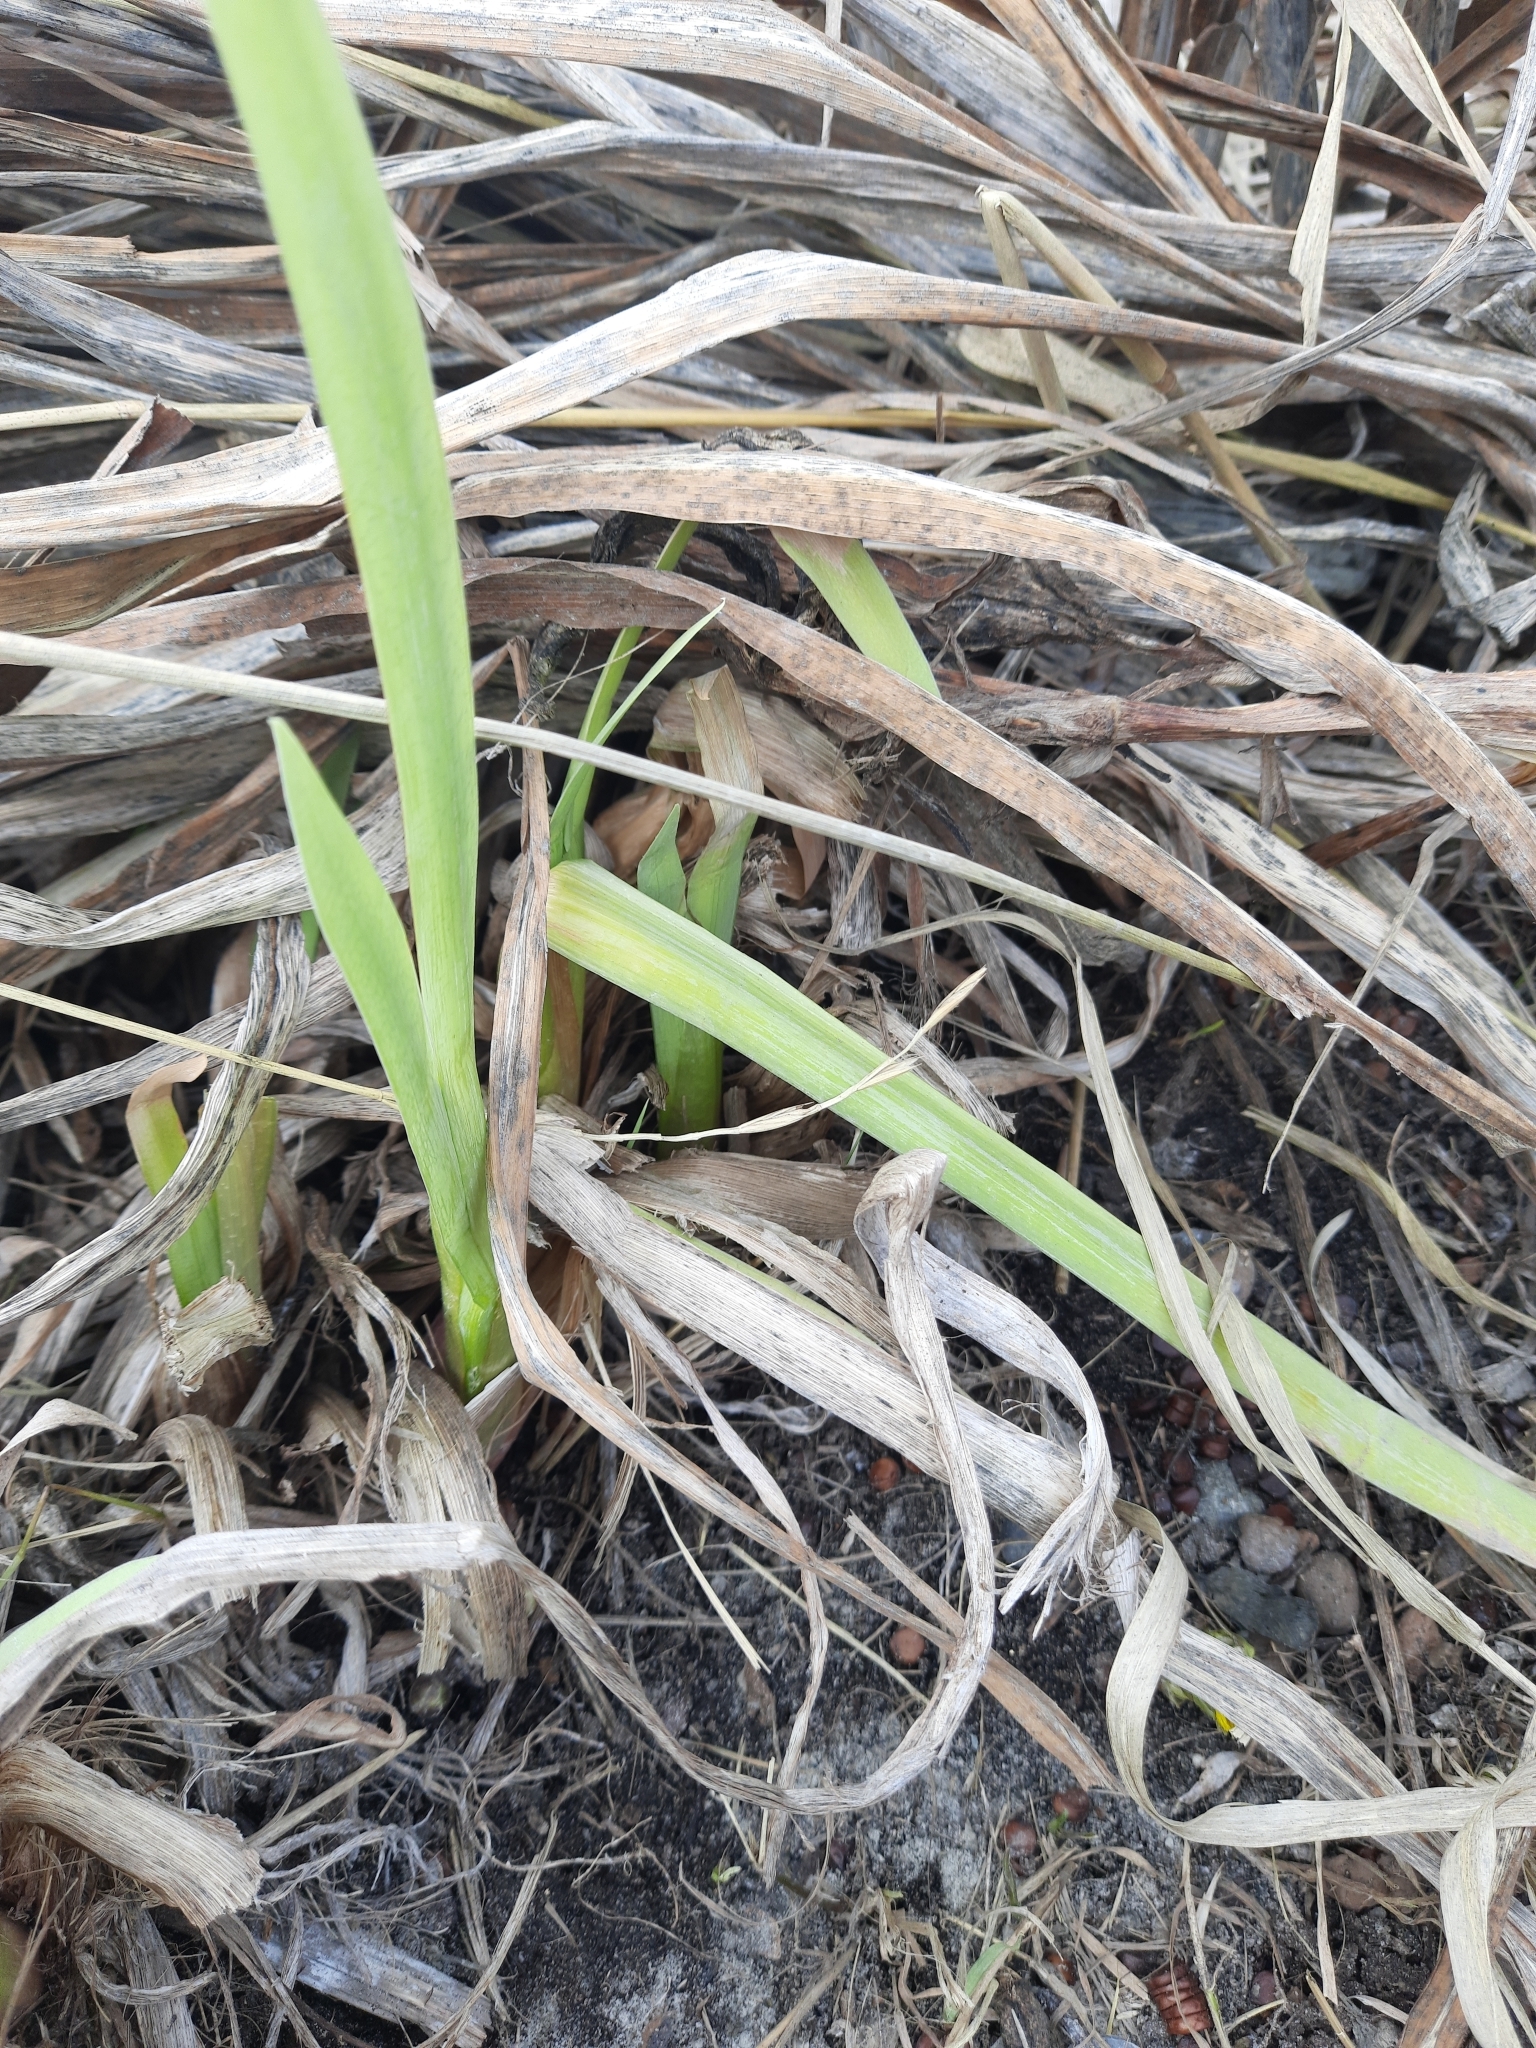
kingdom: Plantae
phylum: Tracheophyta
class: Liliopsida
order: Asparagales
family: Iridaceae
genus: Iris
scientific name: Iris pseudacorus
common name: Yellow flag
